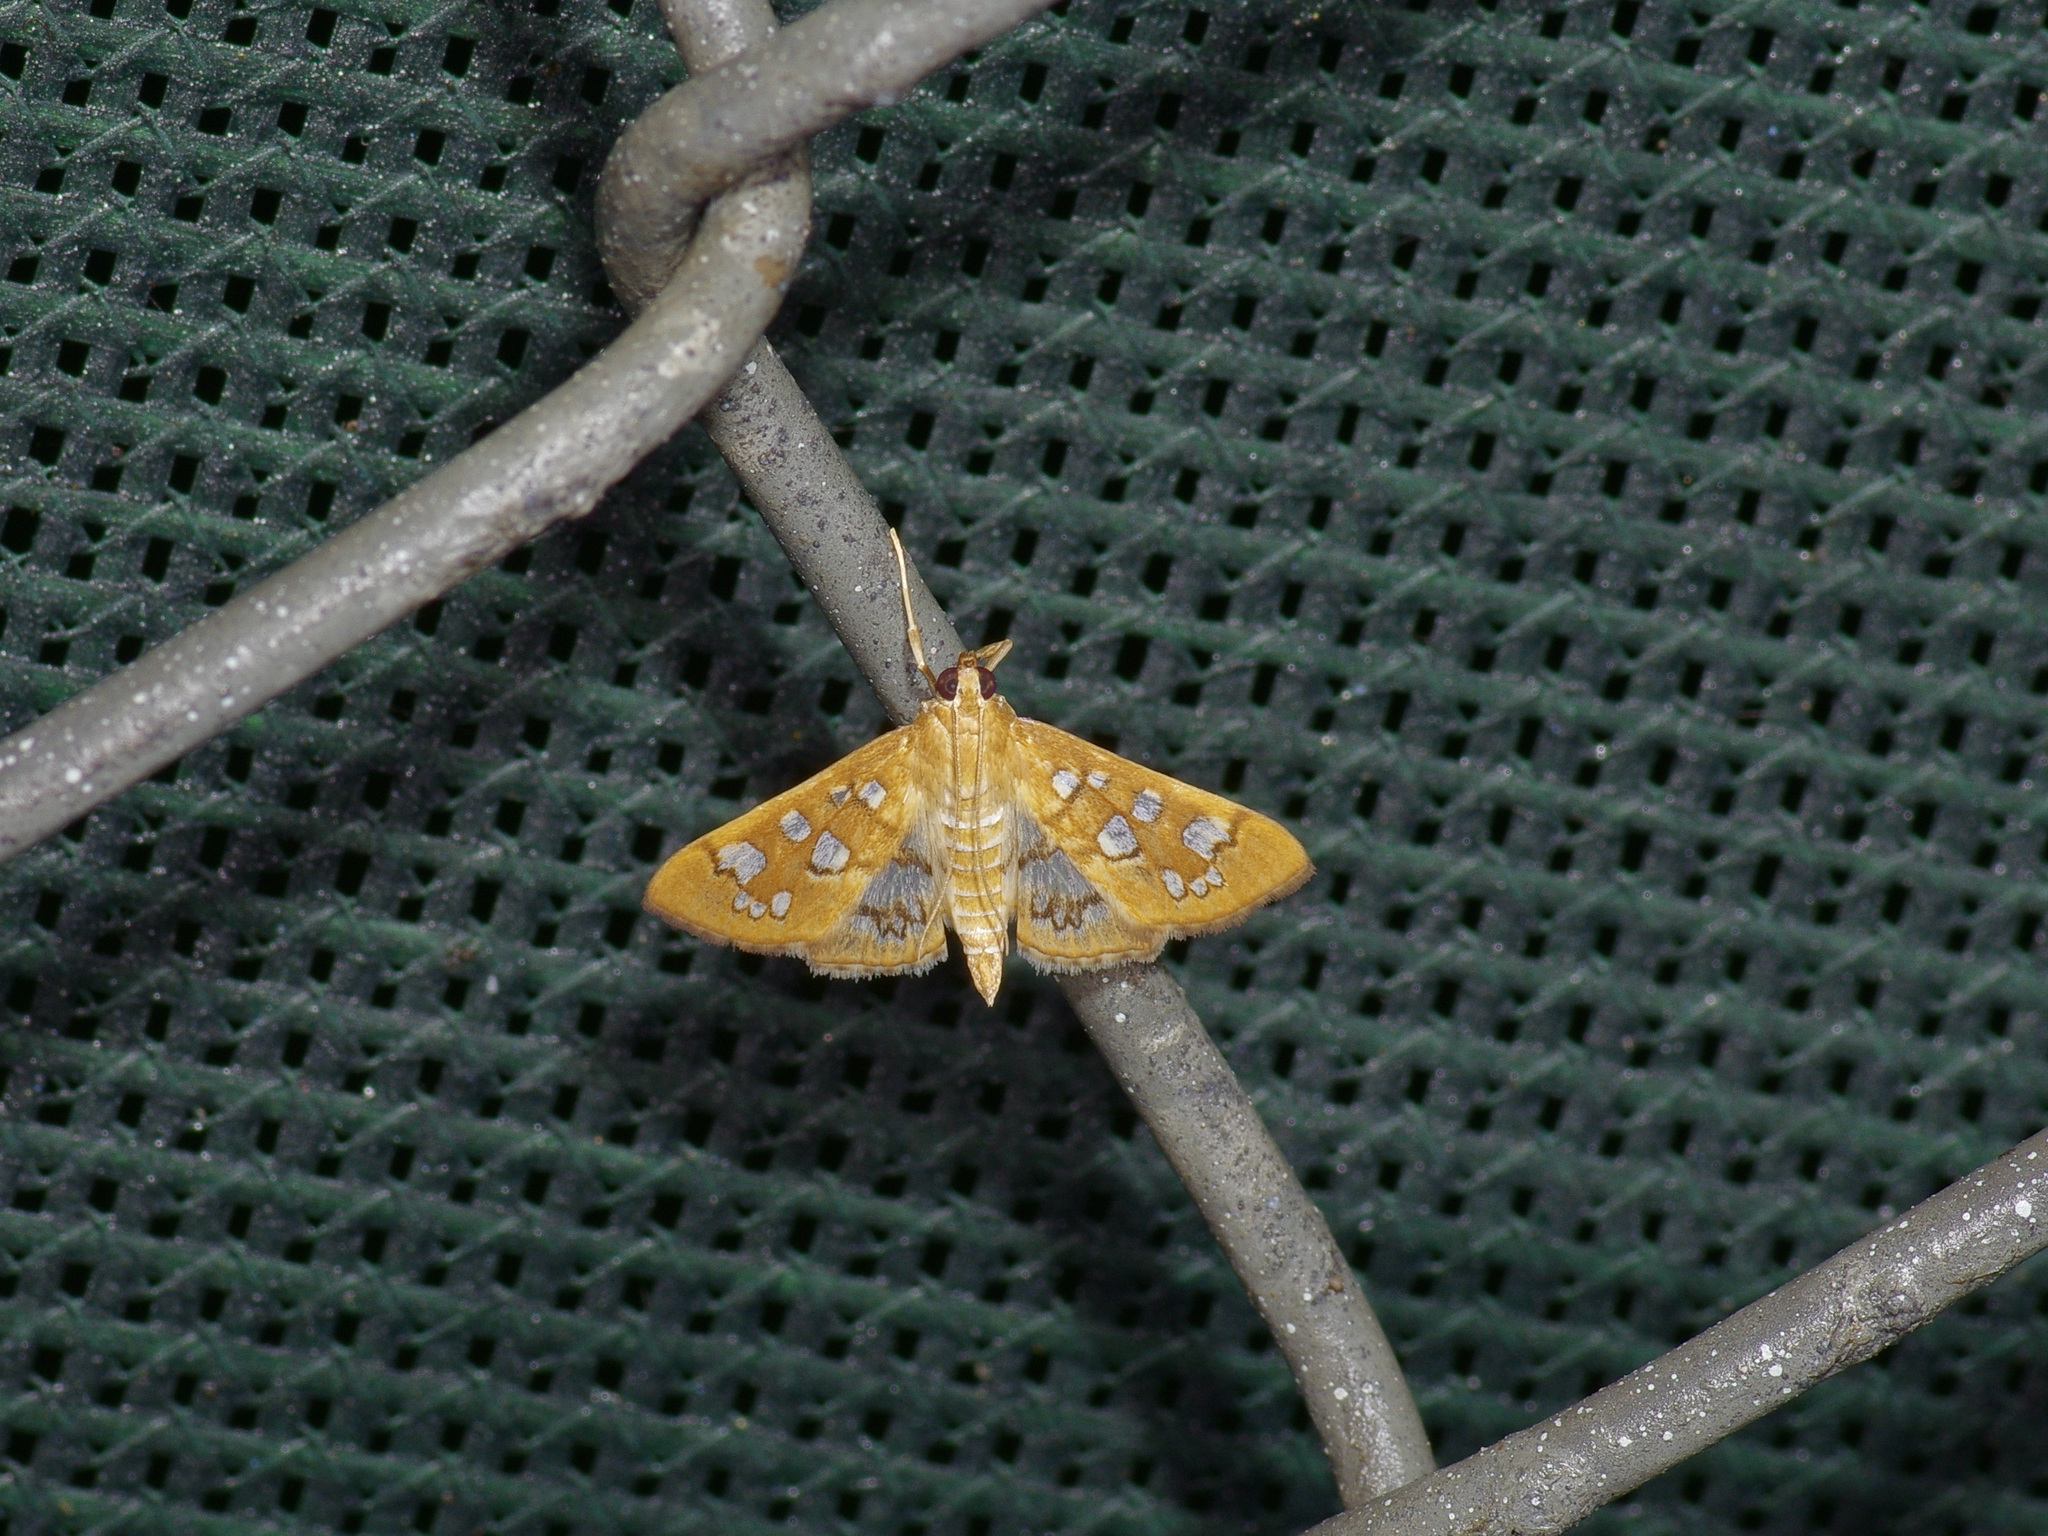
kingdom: Animalia
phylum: Arthropoda
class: Insecta
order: Lepidoptera
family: Crambidae
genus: Samea
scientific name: Samea baccatalis
